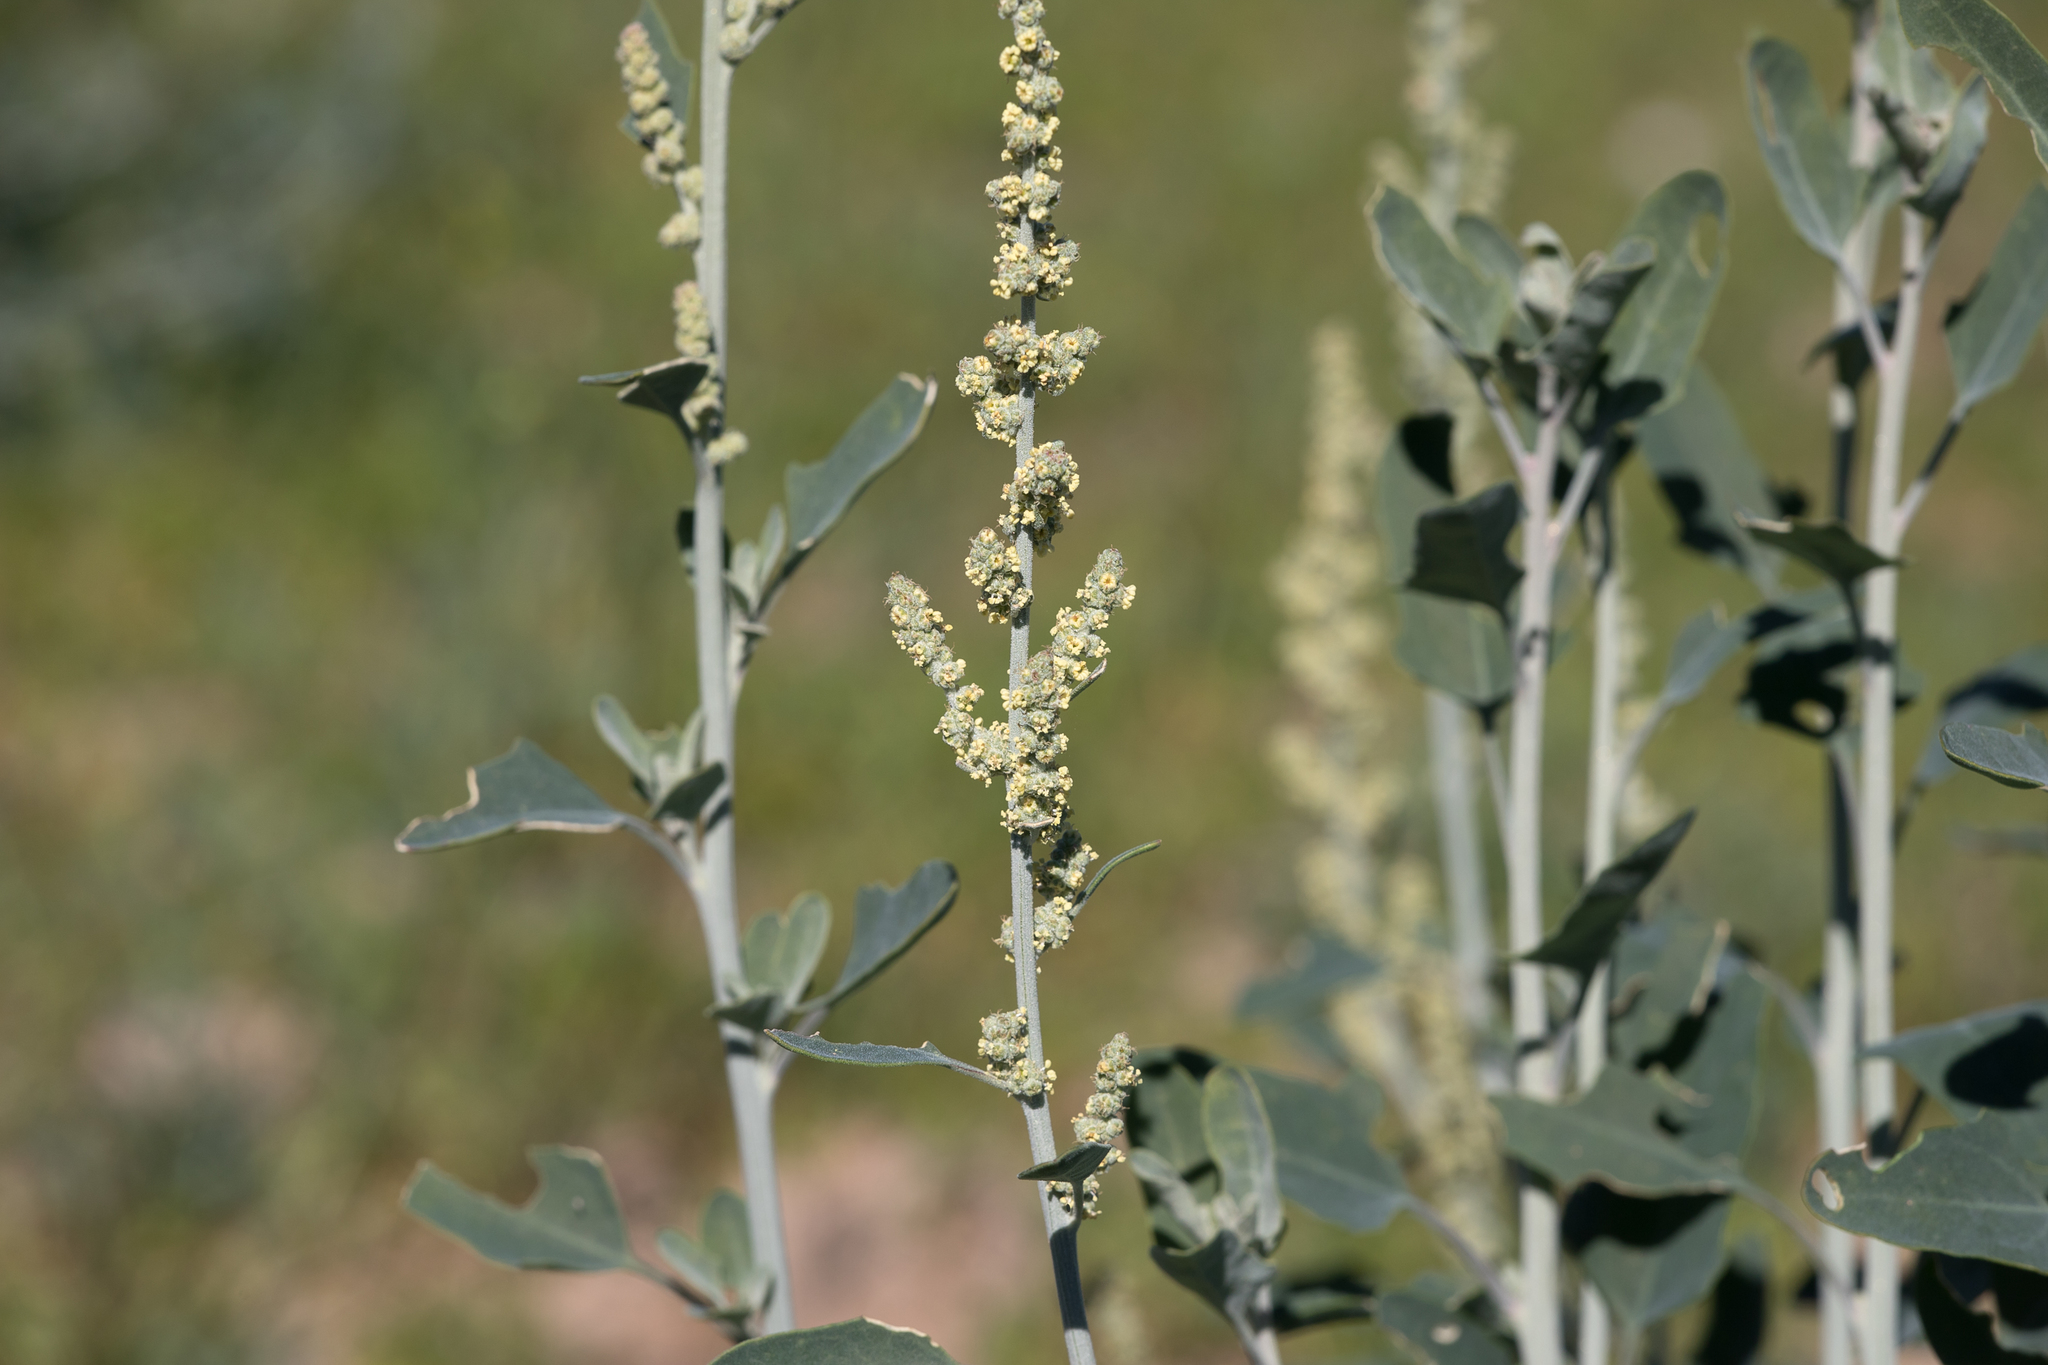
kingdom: Plantae
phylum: Tracheophyta
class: Magnoliopsida
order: Caryophyllales
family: Amaranthaceae
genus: Chenopodium
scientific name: Chenopodium auricomum
